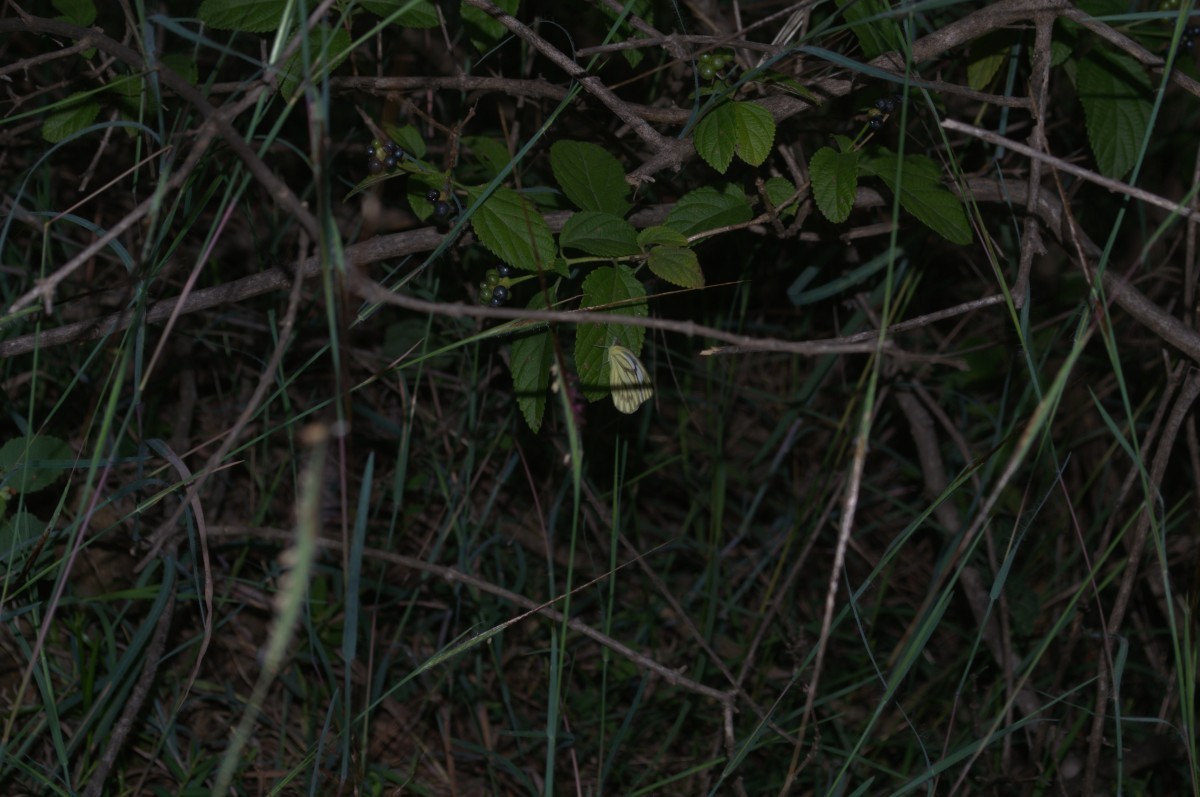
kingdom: Animalia
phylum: Arthropoda
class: Insecta
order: Lepidoptera
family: Pieridae
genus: Cepora
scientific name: Cepora nerissa
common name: Common gull
